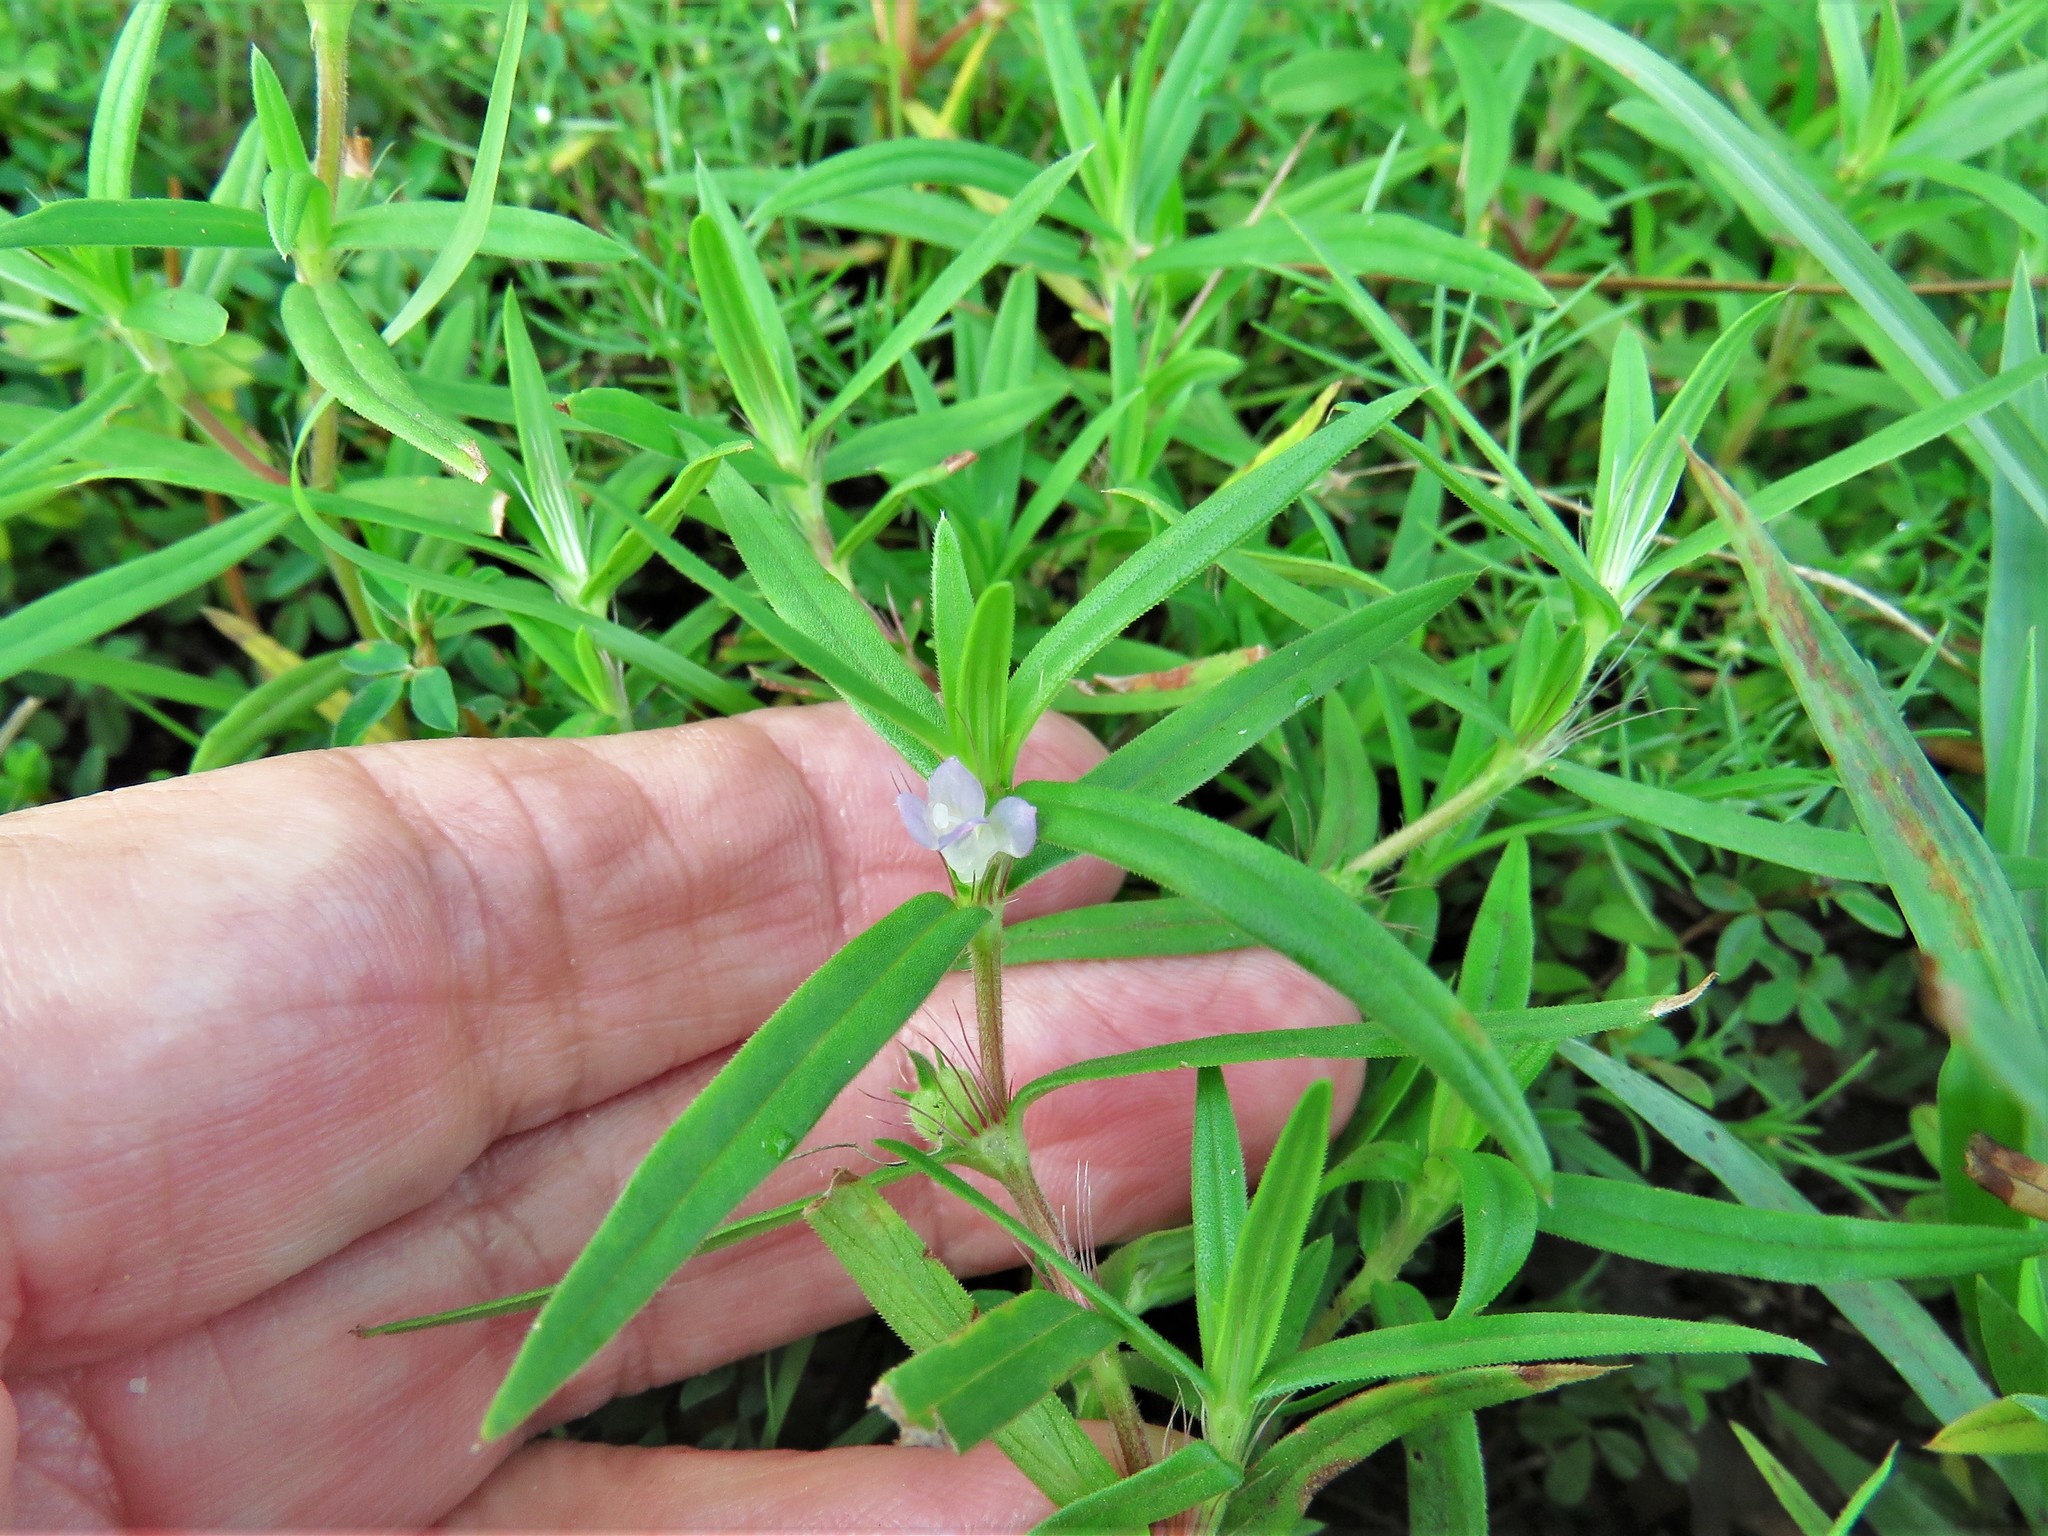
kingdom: Plantae
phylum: Tracheophyta
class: Magnoliopsida
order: Gentianales
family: Rubiaceae
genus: Hexasepalum
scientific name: Hexasepalum teres
